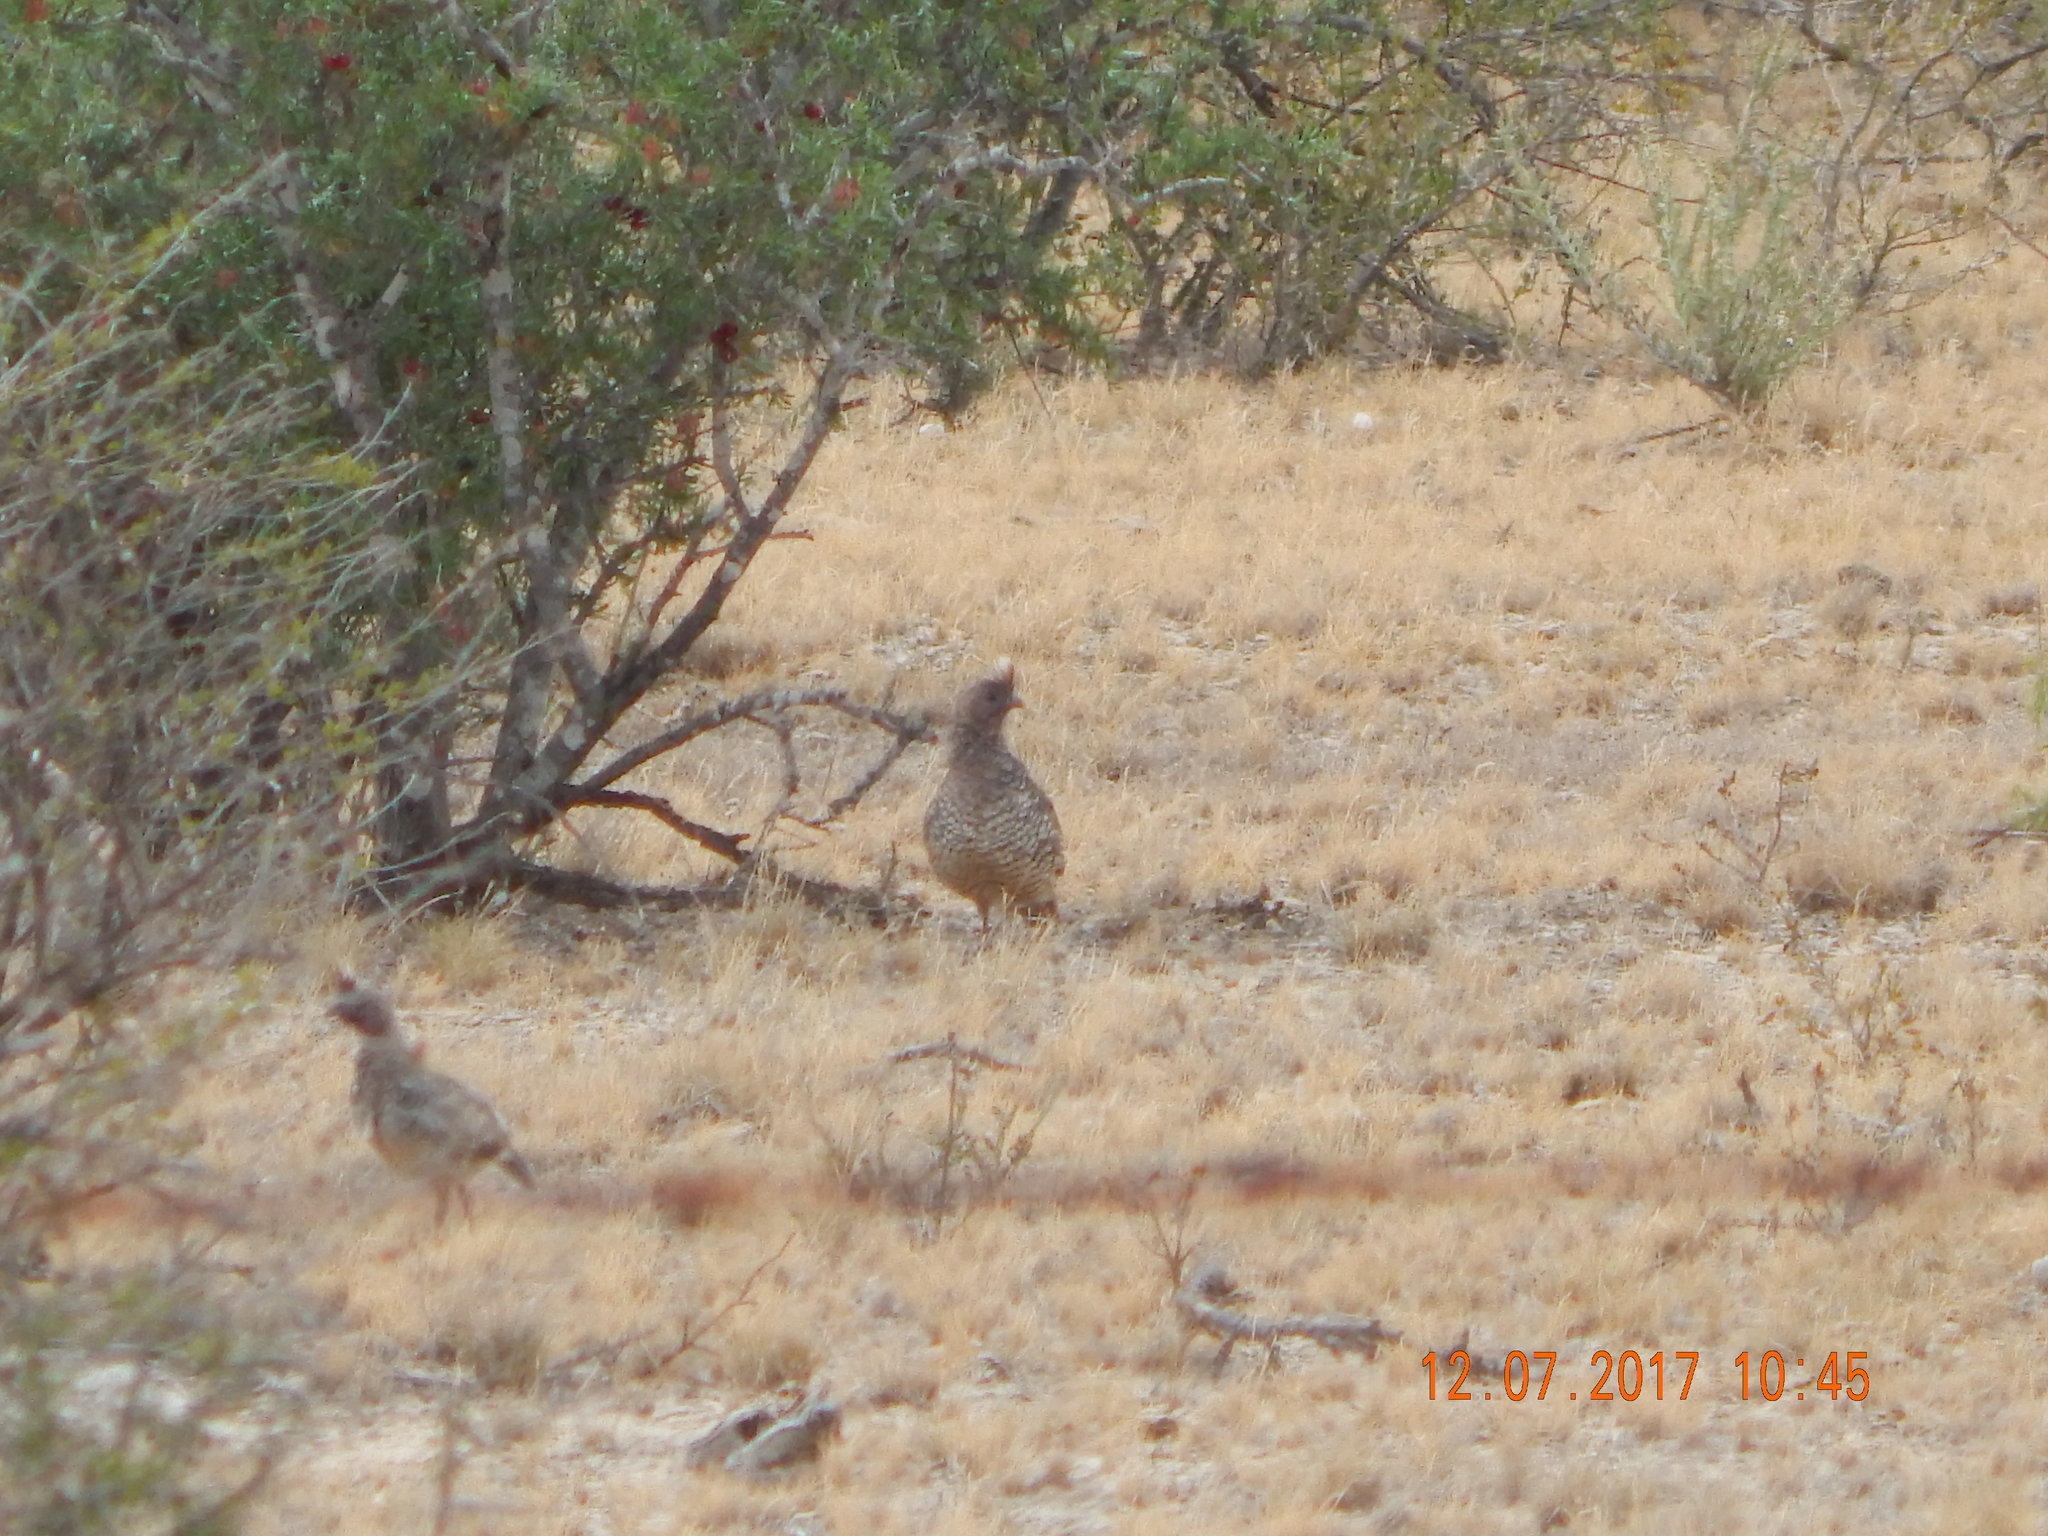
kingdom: Animalia
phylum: Chordata
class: Aves
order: Galliformes
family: Odontophoridae
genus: Callipepla
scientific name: Callipepla squamata
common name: Scaled quail
